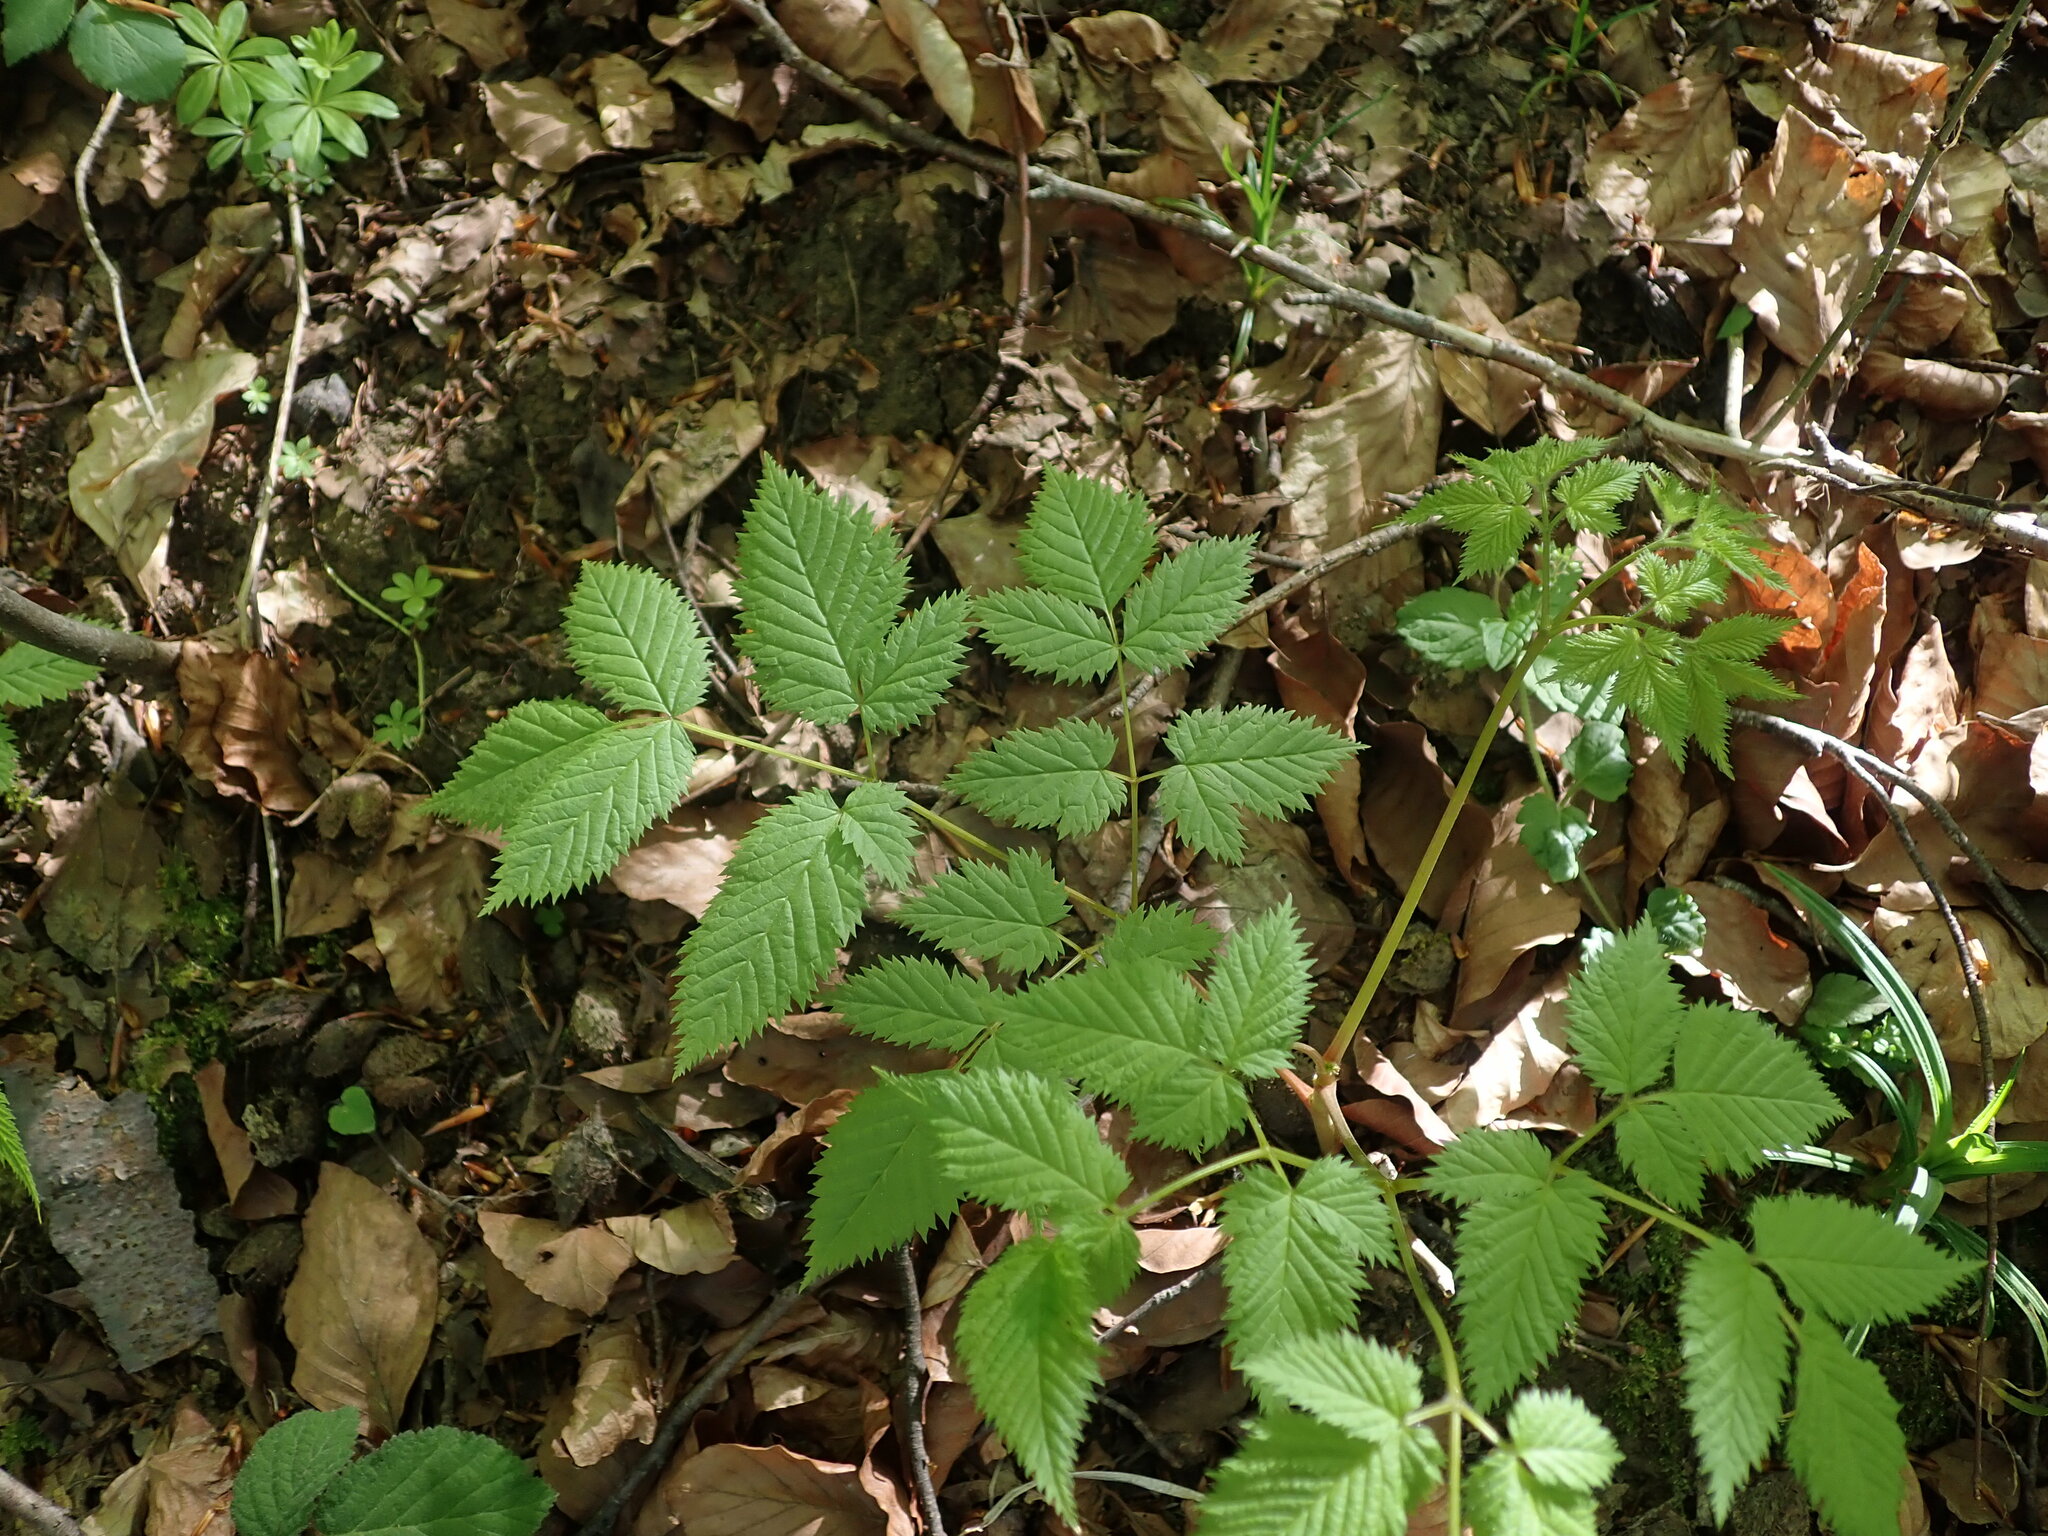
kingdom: Plantae
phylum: Tracheophyta
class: Magnoliopsida
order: Rosales
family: Rosaceae
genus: Aruncus
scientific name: Aruncus dioicus
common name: Buck's-beard
